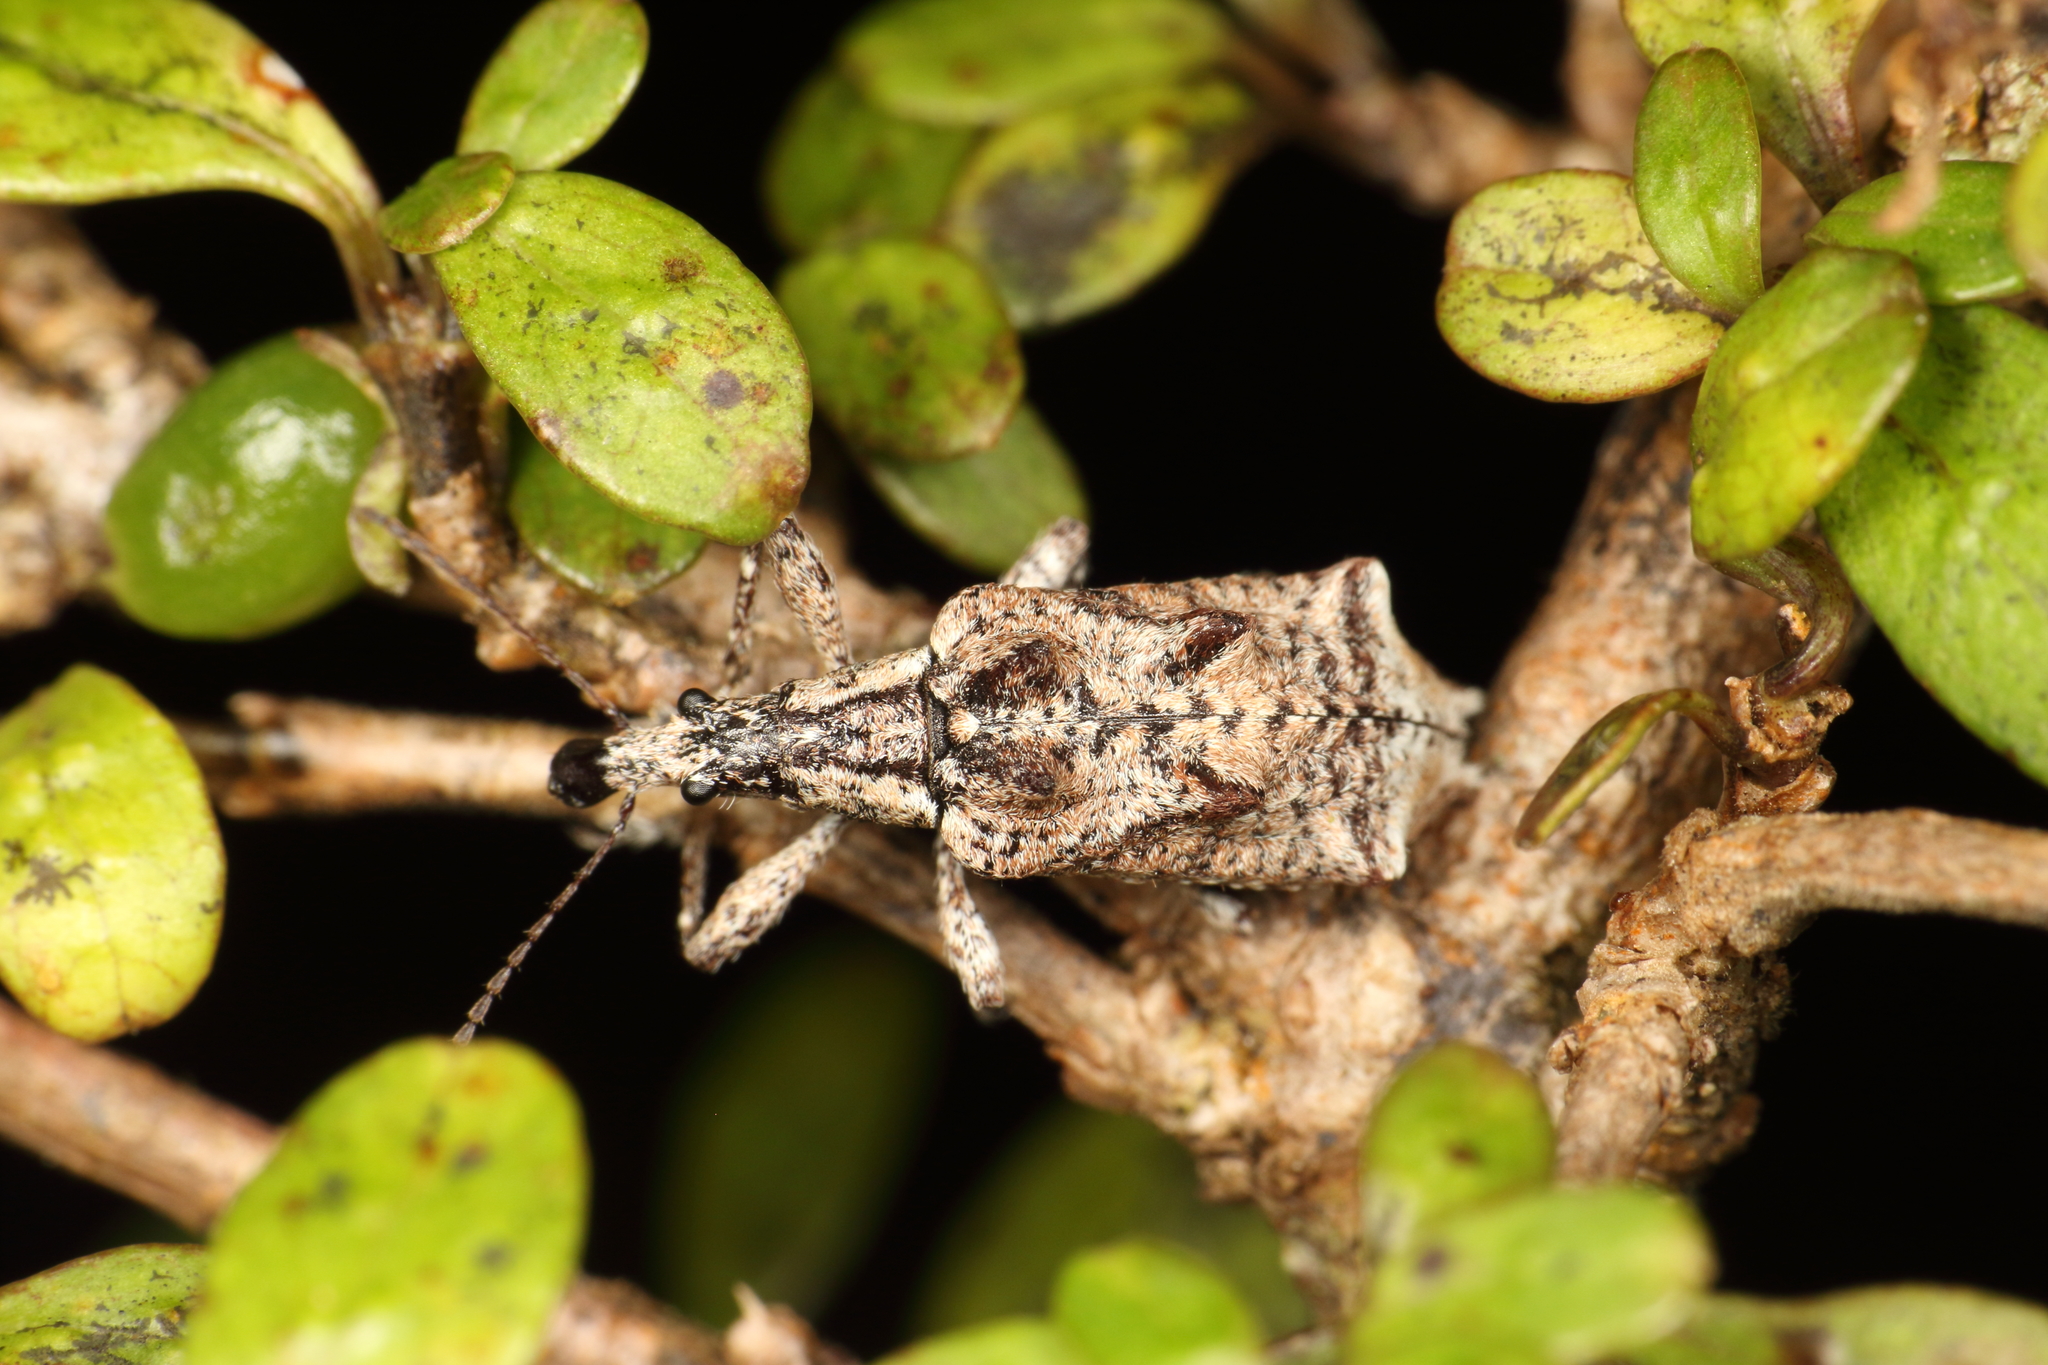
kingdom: Animalia
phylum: Arthropoda
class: Insecta
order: Coleoptera
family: Belidae
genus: Agathinus
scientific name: Agathinus tridens
